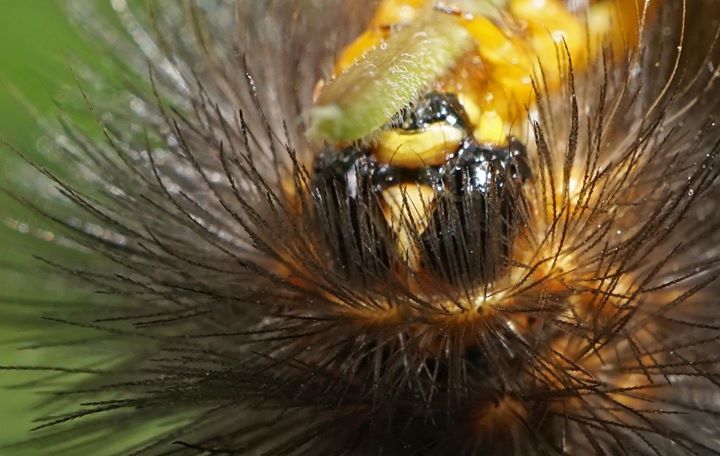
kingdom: Animalia
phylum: Arthropoda
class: Insecta
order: Lepidoptera
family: Erebidae
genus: Estigmene
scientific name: Estigmene acrea
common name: Salt marsh moth
